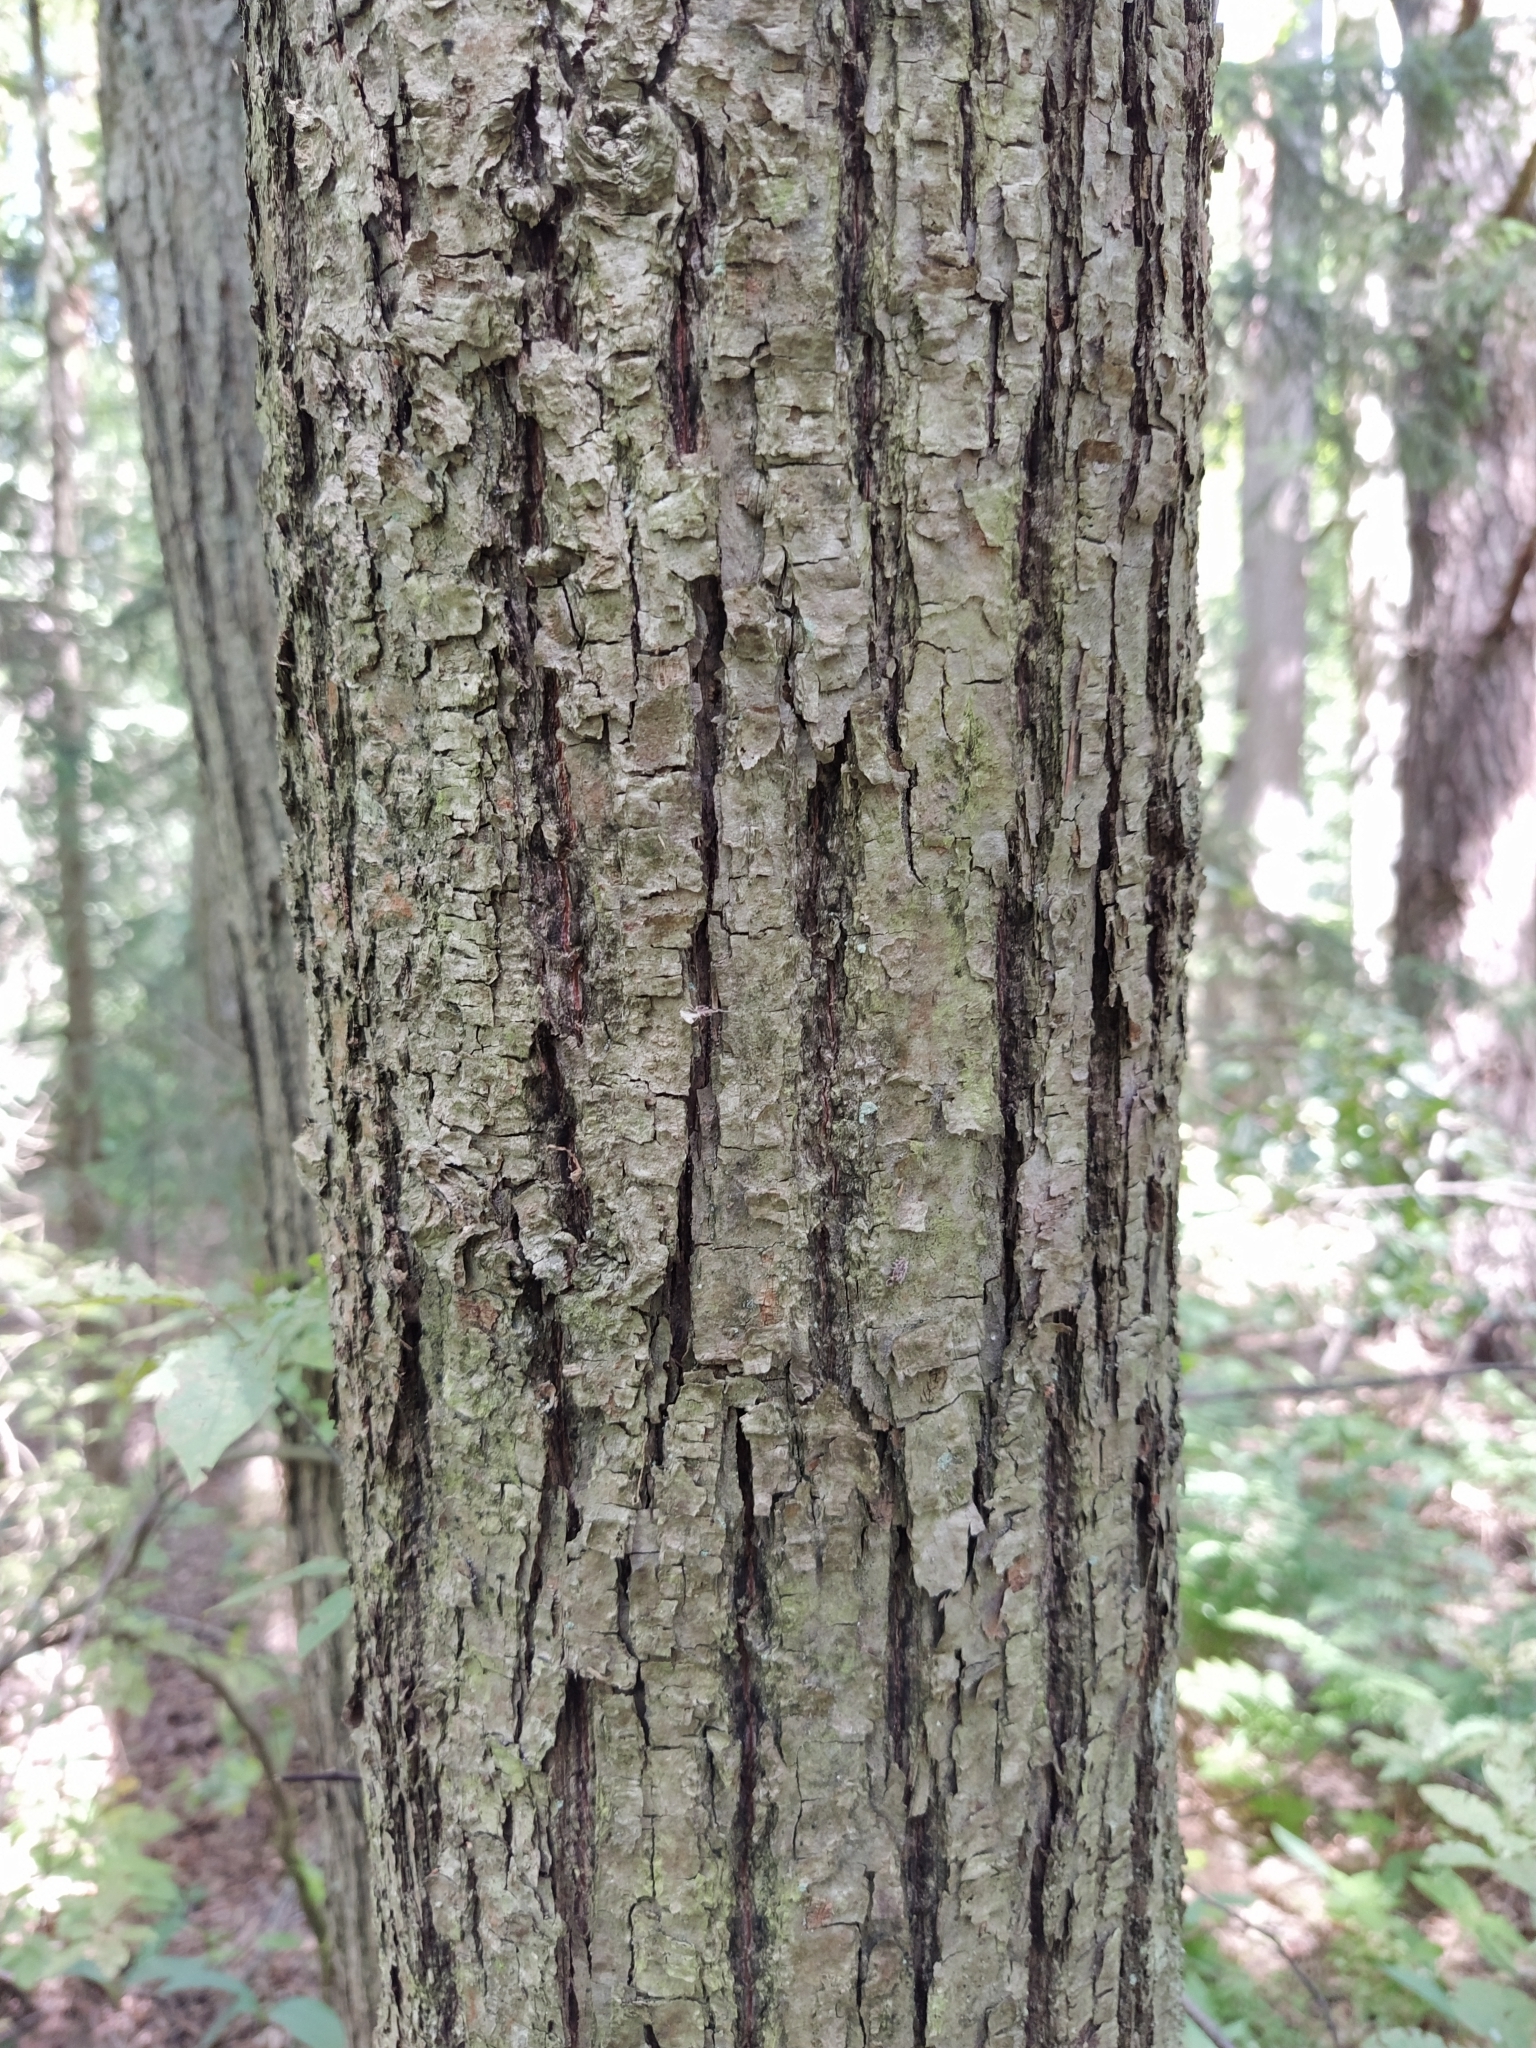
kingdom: Plantae
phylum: Tracheophyta
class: Magnoliopsida
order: Malvales
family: Malvaceae
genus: Tilia
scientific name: Tilia cordata
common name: Small-leaved lime
